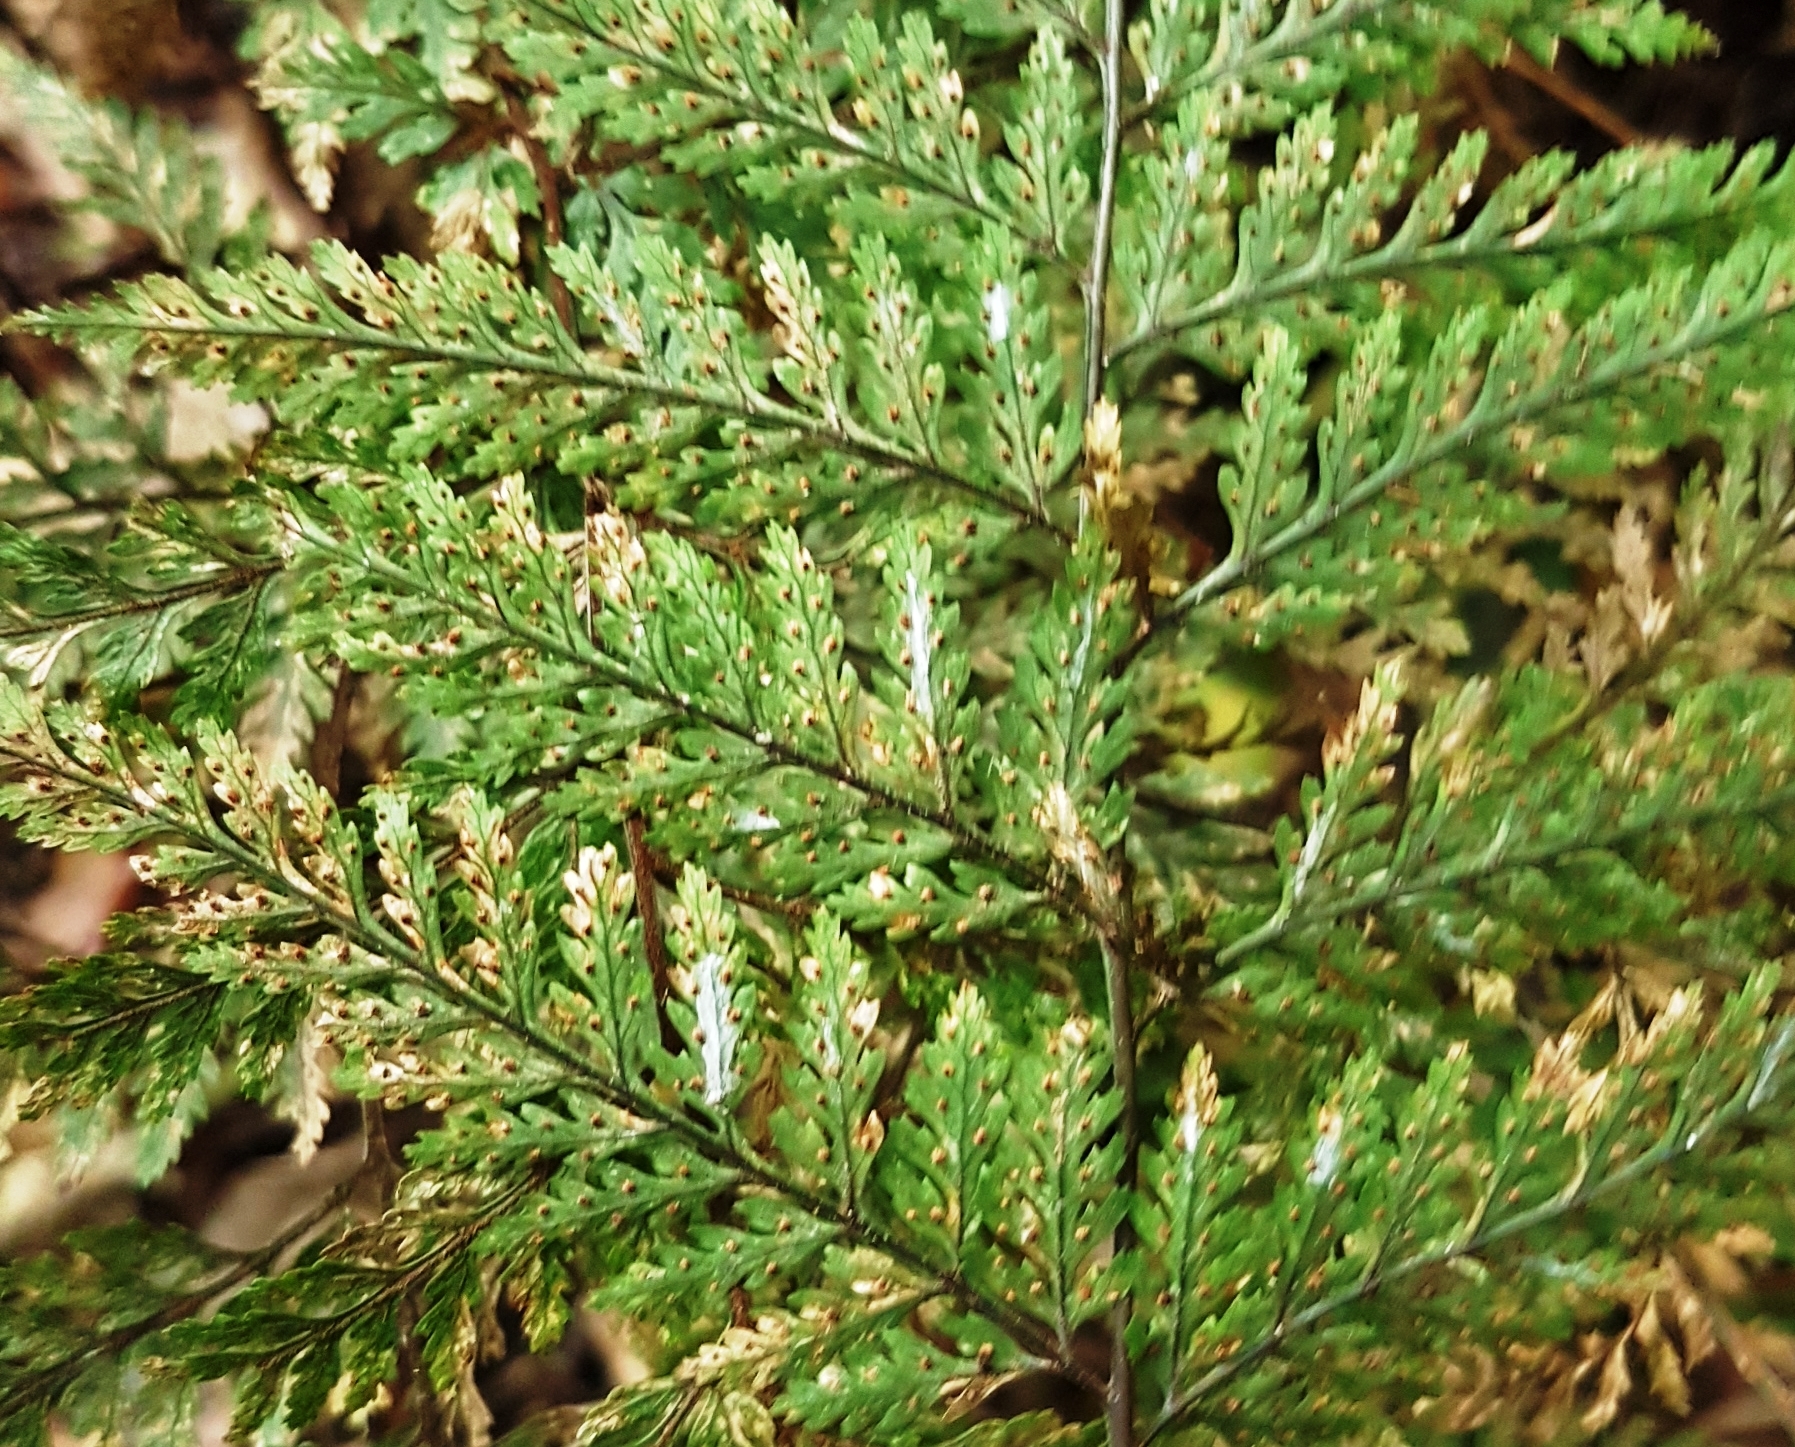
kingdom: Plantae
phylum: Tracheophyta
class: Polypodiopsida
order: Polypodiales
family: Dryopteridaceae
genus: Parapolystichum
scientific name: Parapolystichum glabellum
